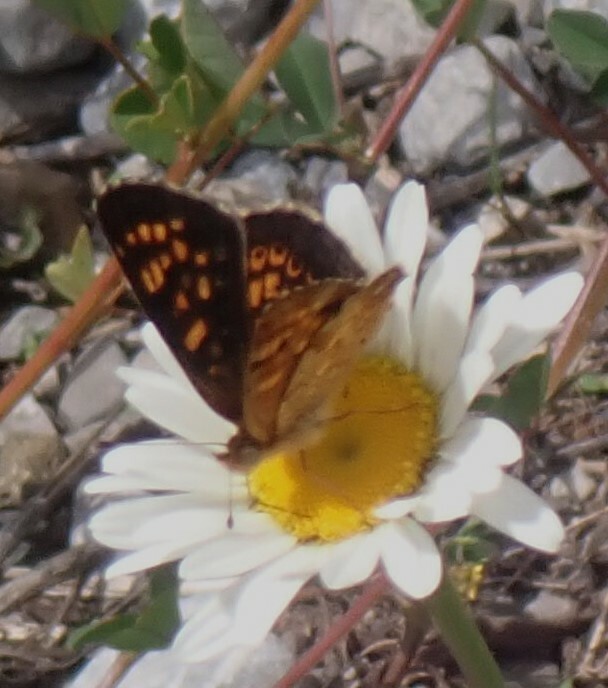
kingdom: Animalia
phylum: Arthropoda
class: Insecta
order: Lepidoptera
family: Nymphalidae
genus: Phyciodes
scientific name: Phyciodes tharos
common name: Pearl crescent
